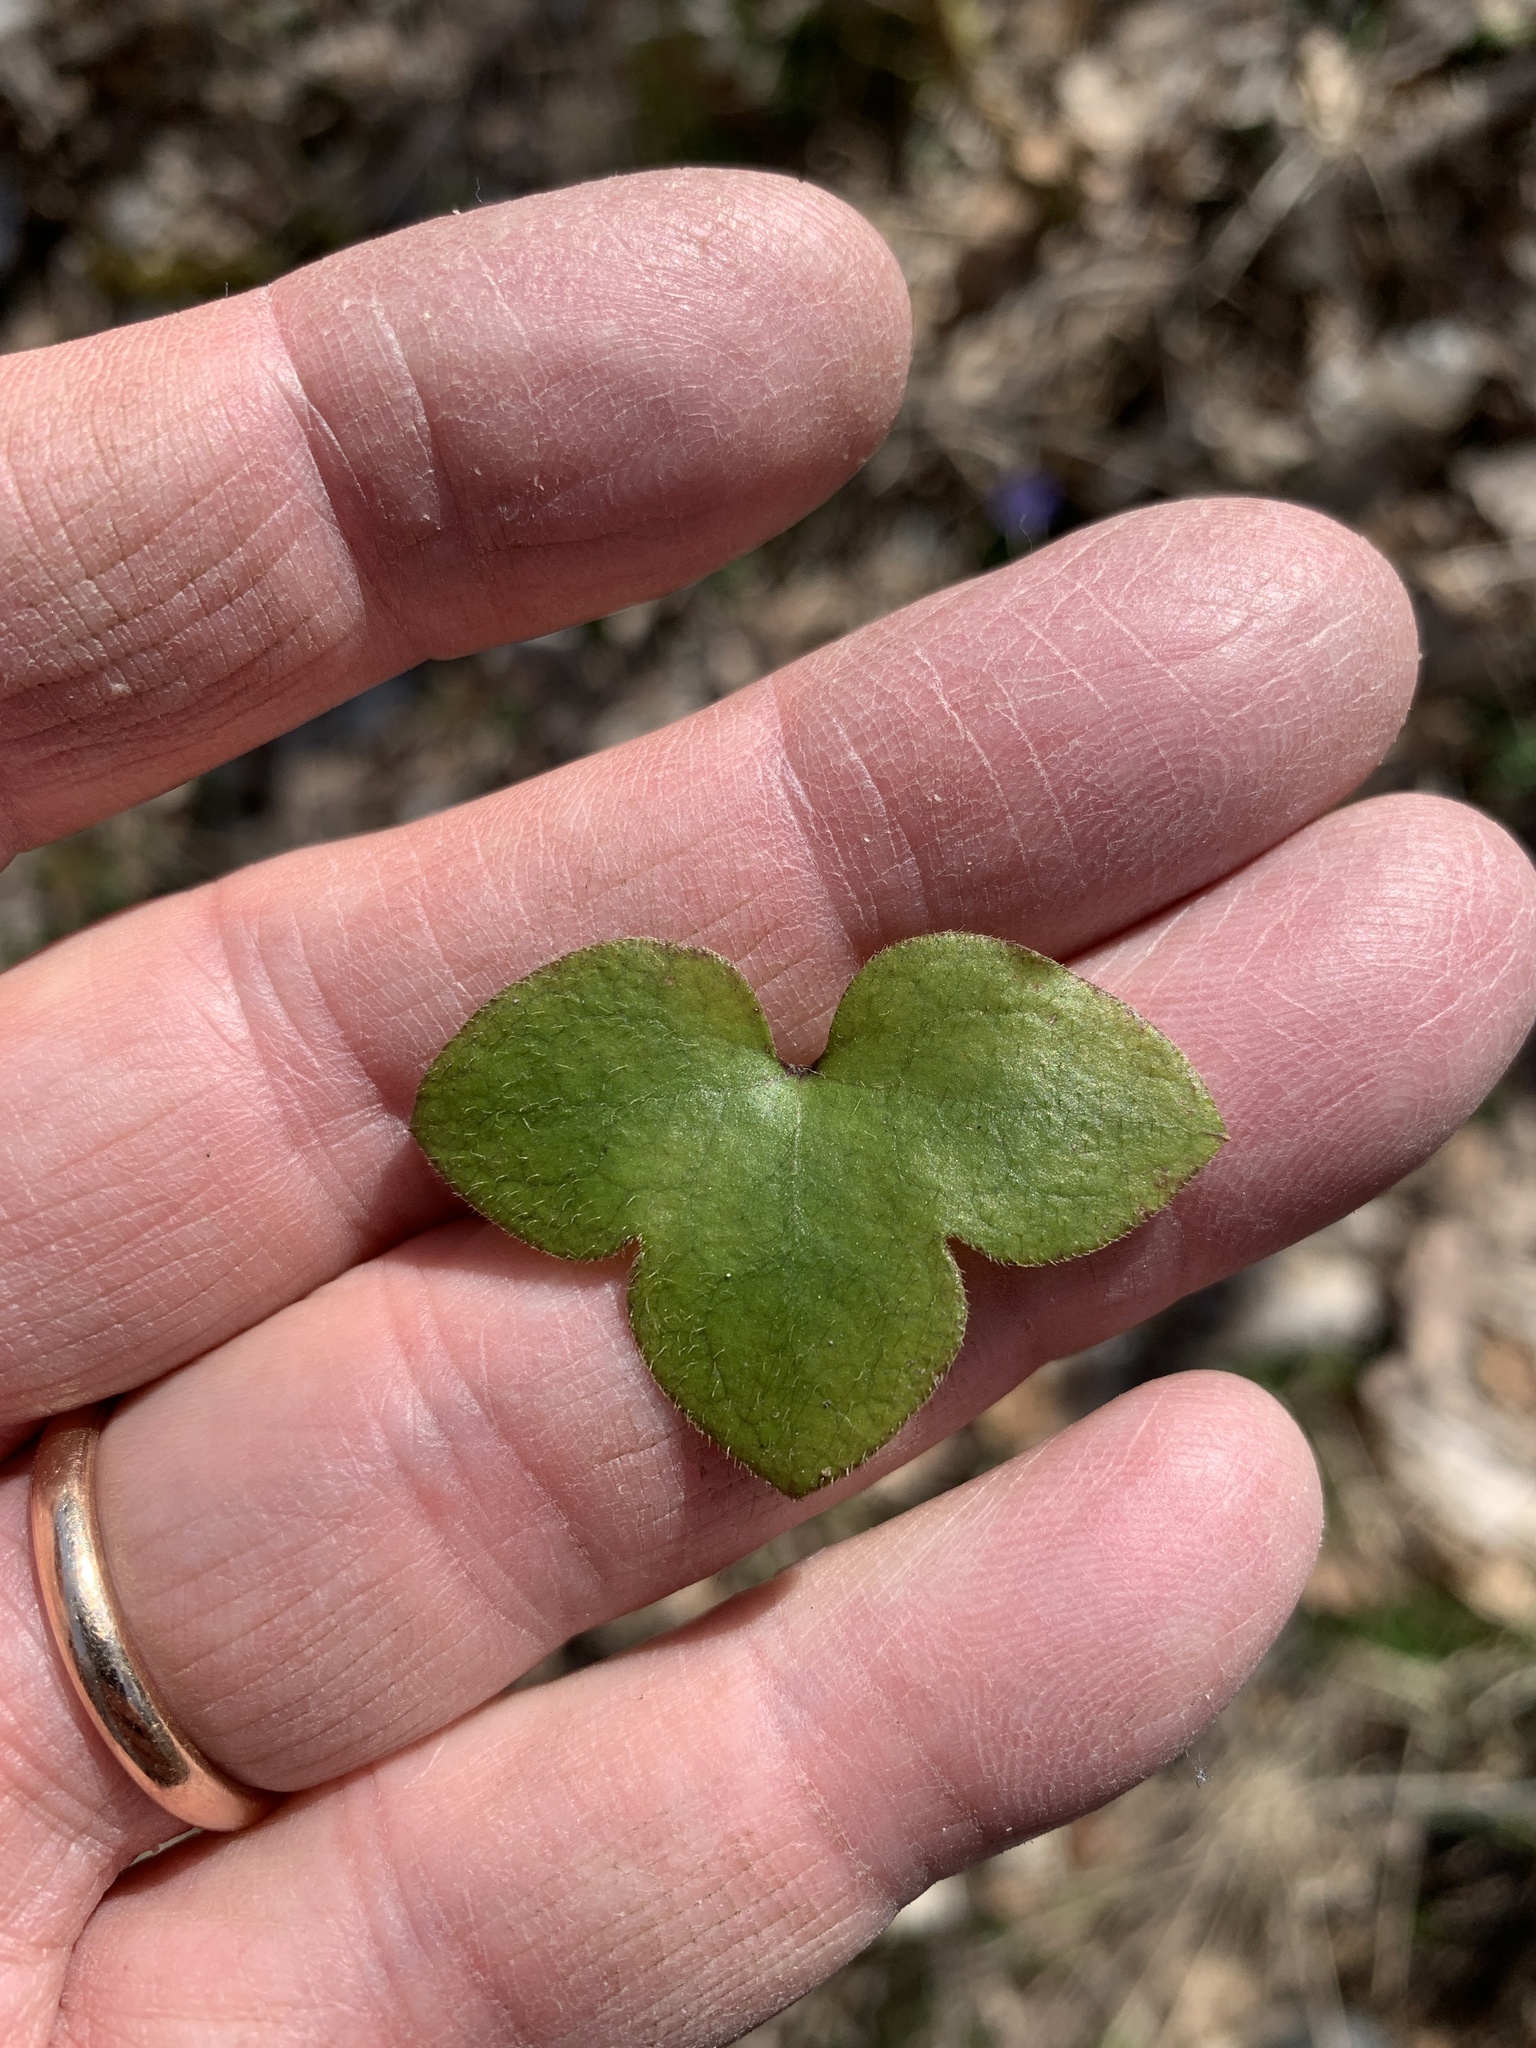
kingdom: Plantae
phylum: Tracheophyta
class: Magnoliopsida
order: Ranunculales
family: Ranunculaceae
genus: Hepatica
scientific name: Hepatica nobilis
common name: Liverleaf
